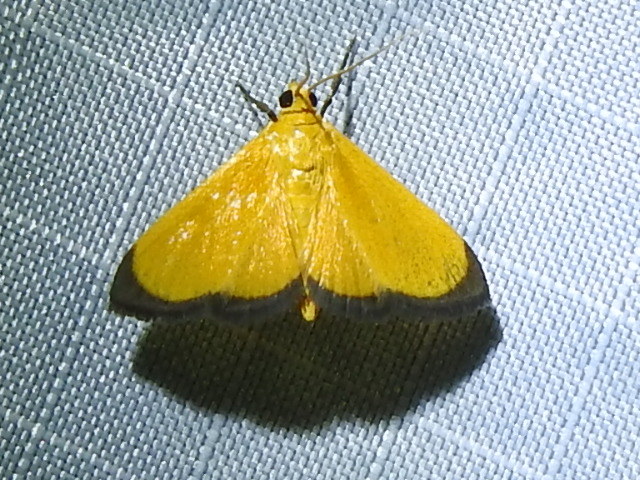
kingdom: Animalia
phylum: Arthropoda
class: Insecta
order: Lepidoptera
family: Crambidae
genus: Helvibotys
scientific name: Helvibotys freemani
